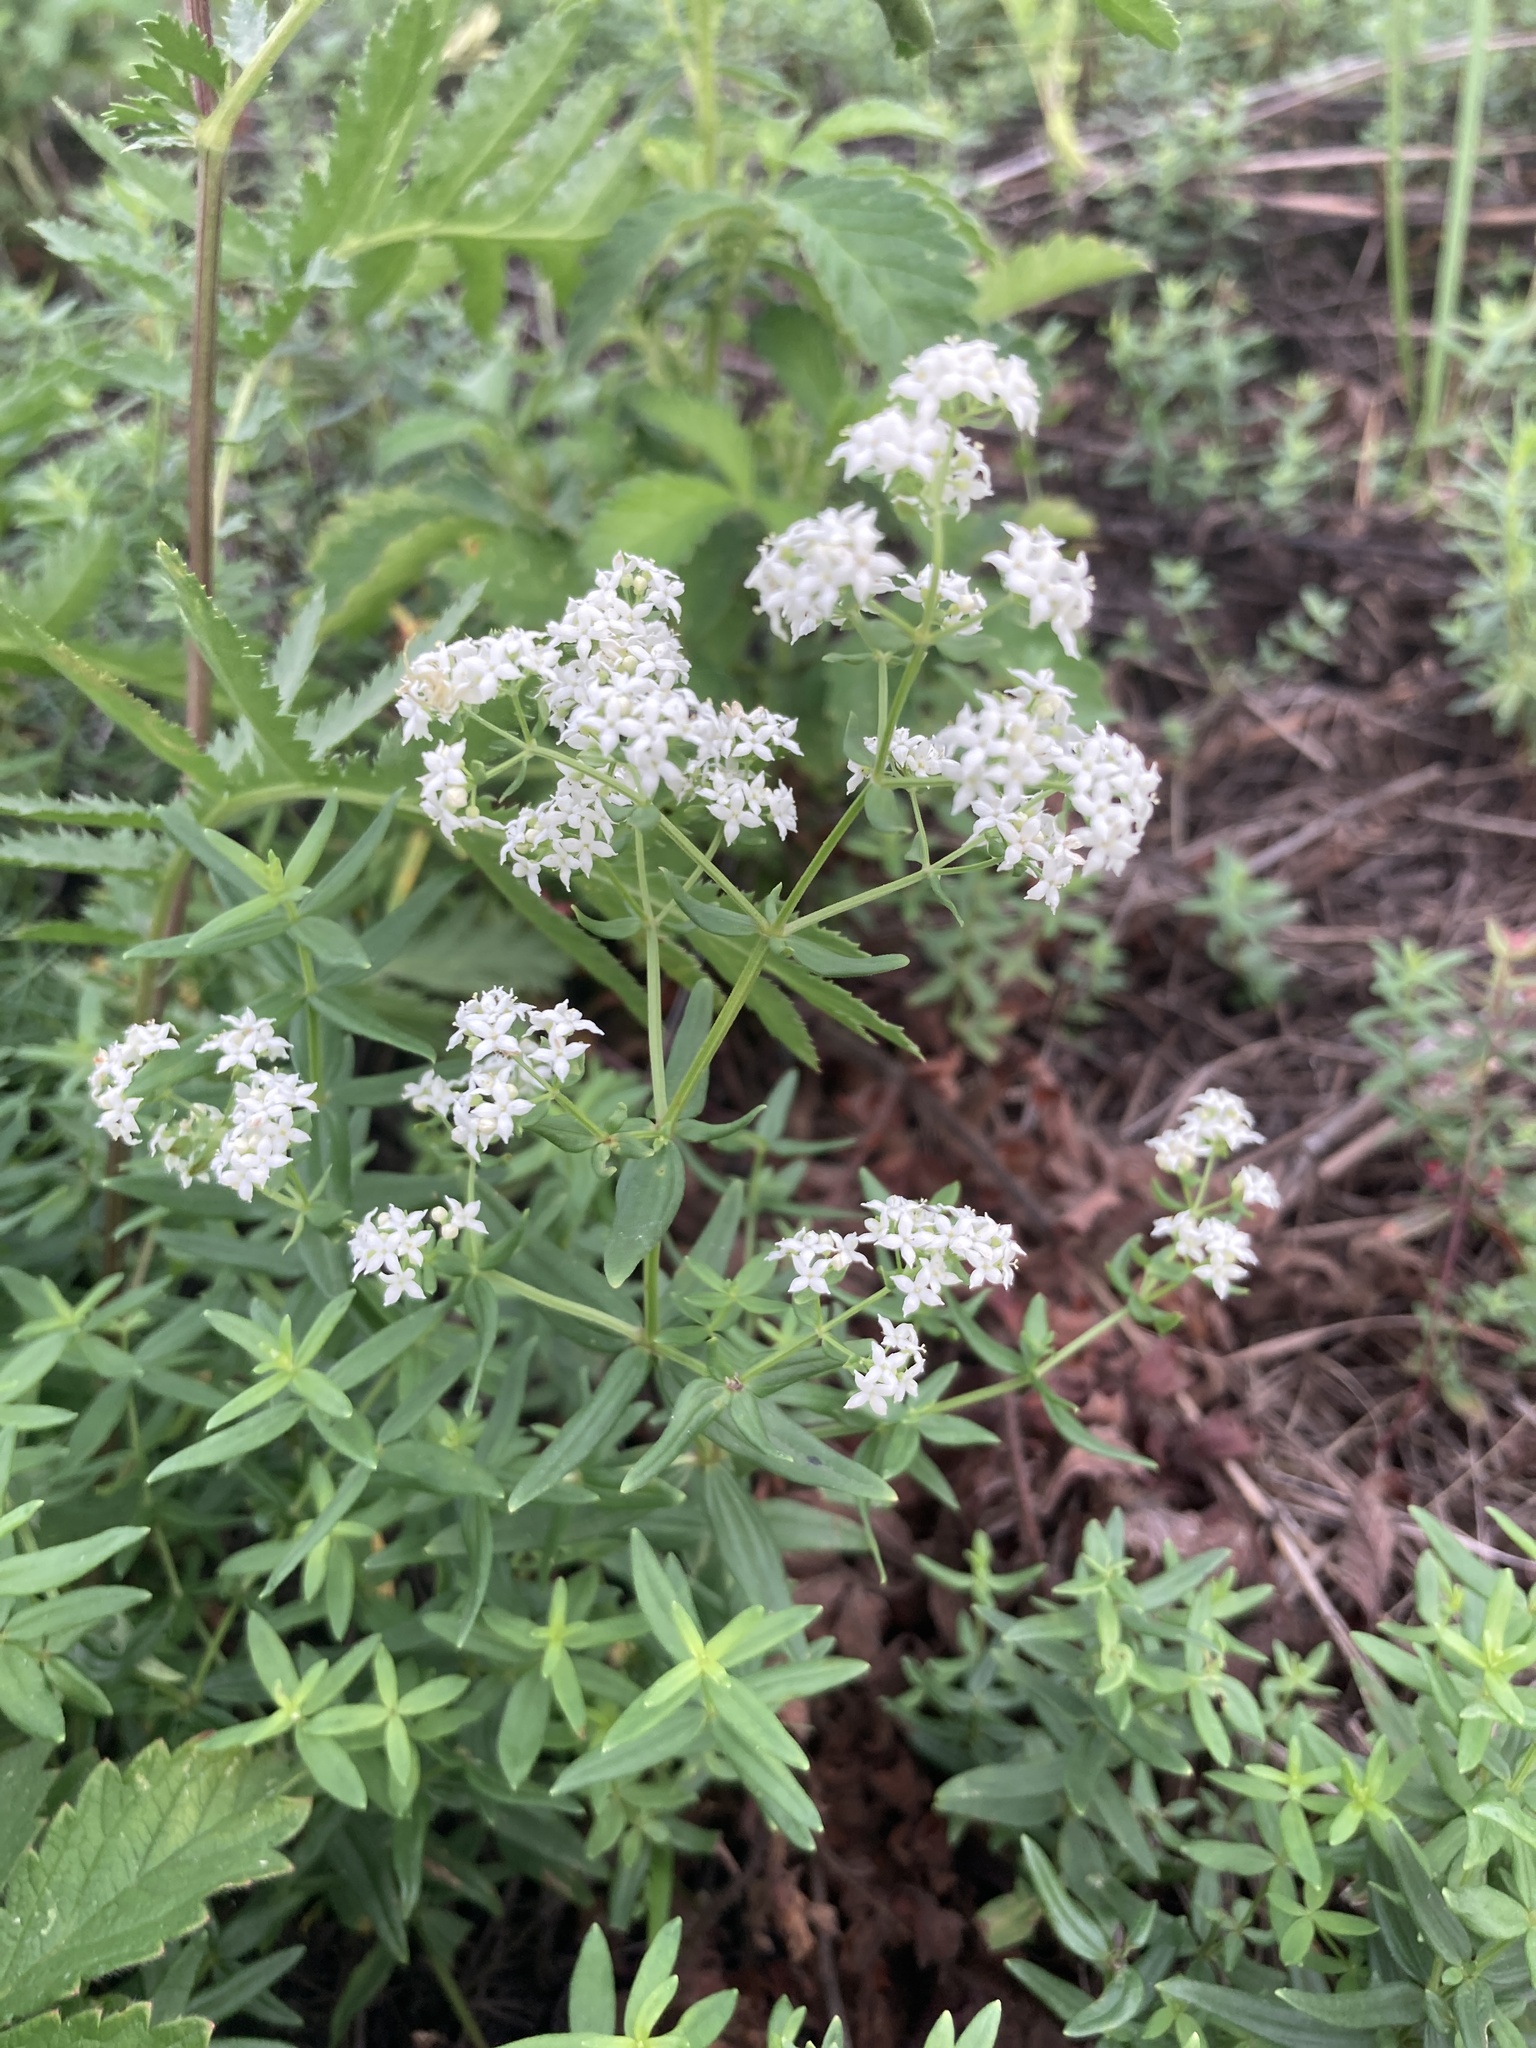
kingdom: Plantae
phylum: Tracheophyta
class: Magnoliopsida
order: Gentianales
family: Rubiaceae
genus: Galium
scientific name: Galium boreale
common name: Northern bedstraw
